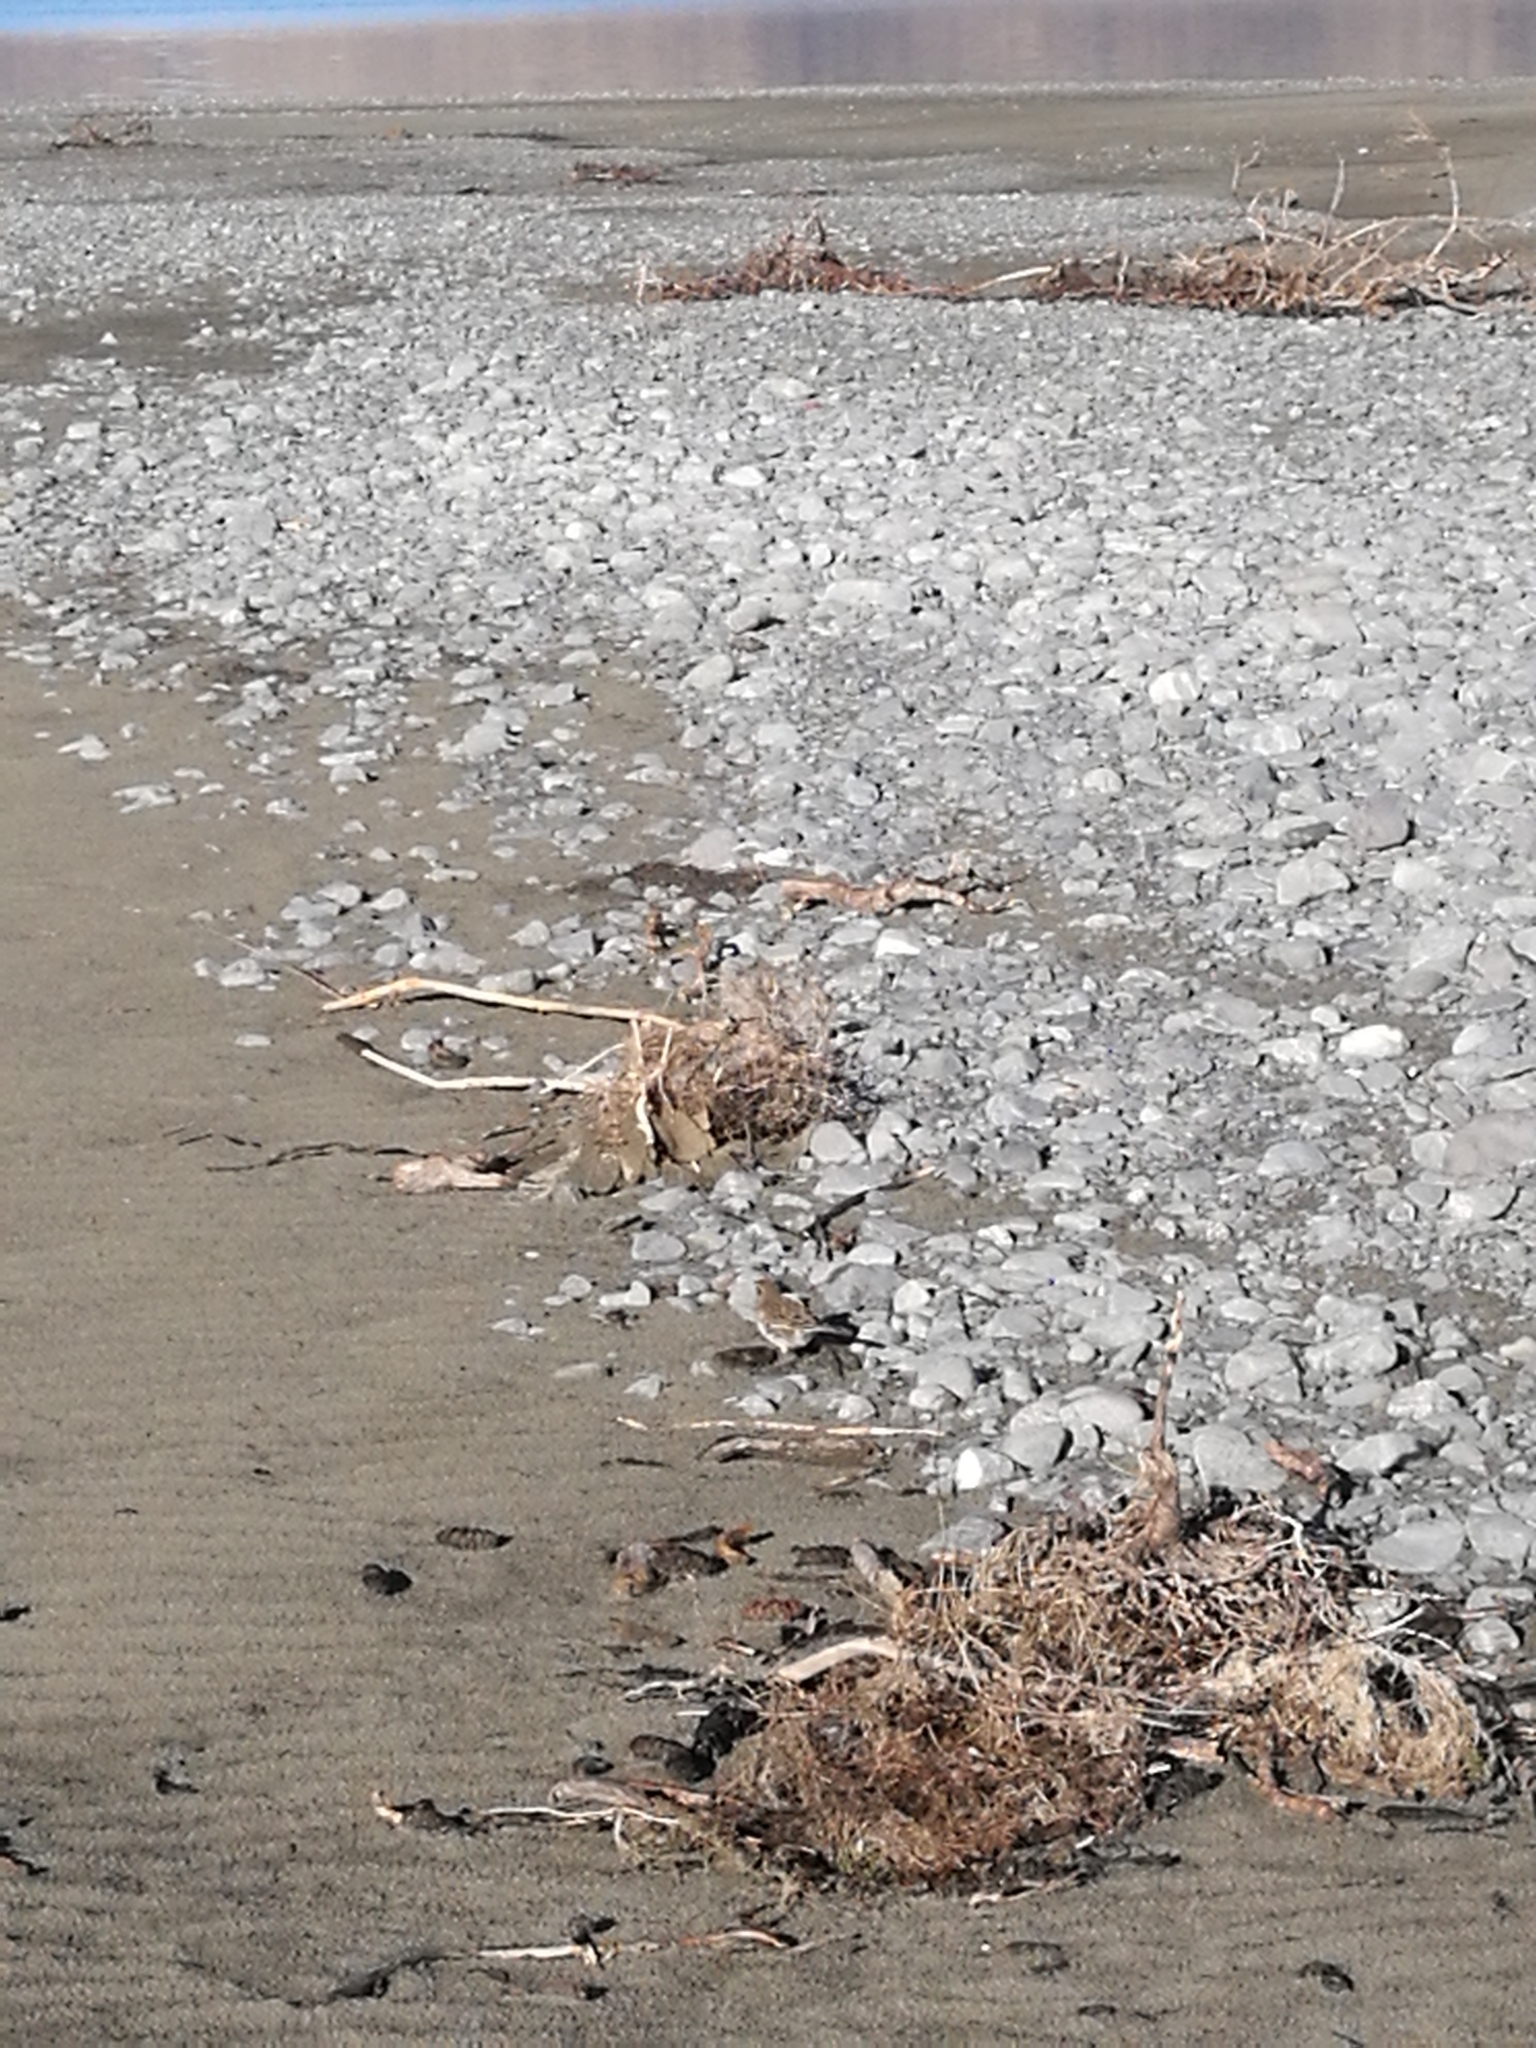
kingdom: Animalia
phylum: Chordata
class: Aves
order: Passeriformes
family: Motacillidae
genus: Anthus
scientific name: Anthus novaeseelandiae
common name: New zealand pipit
